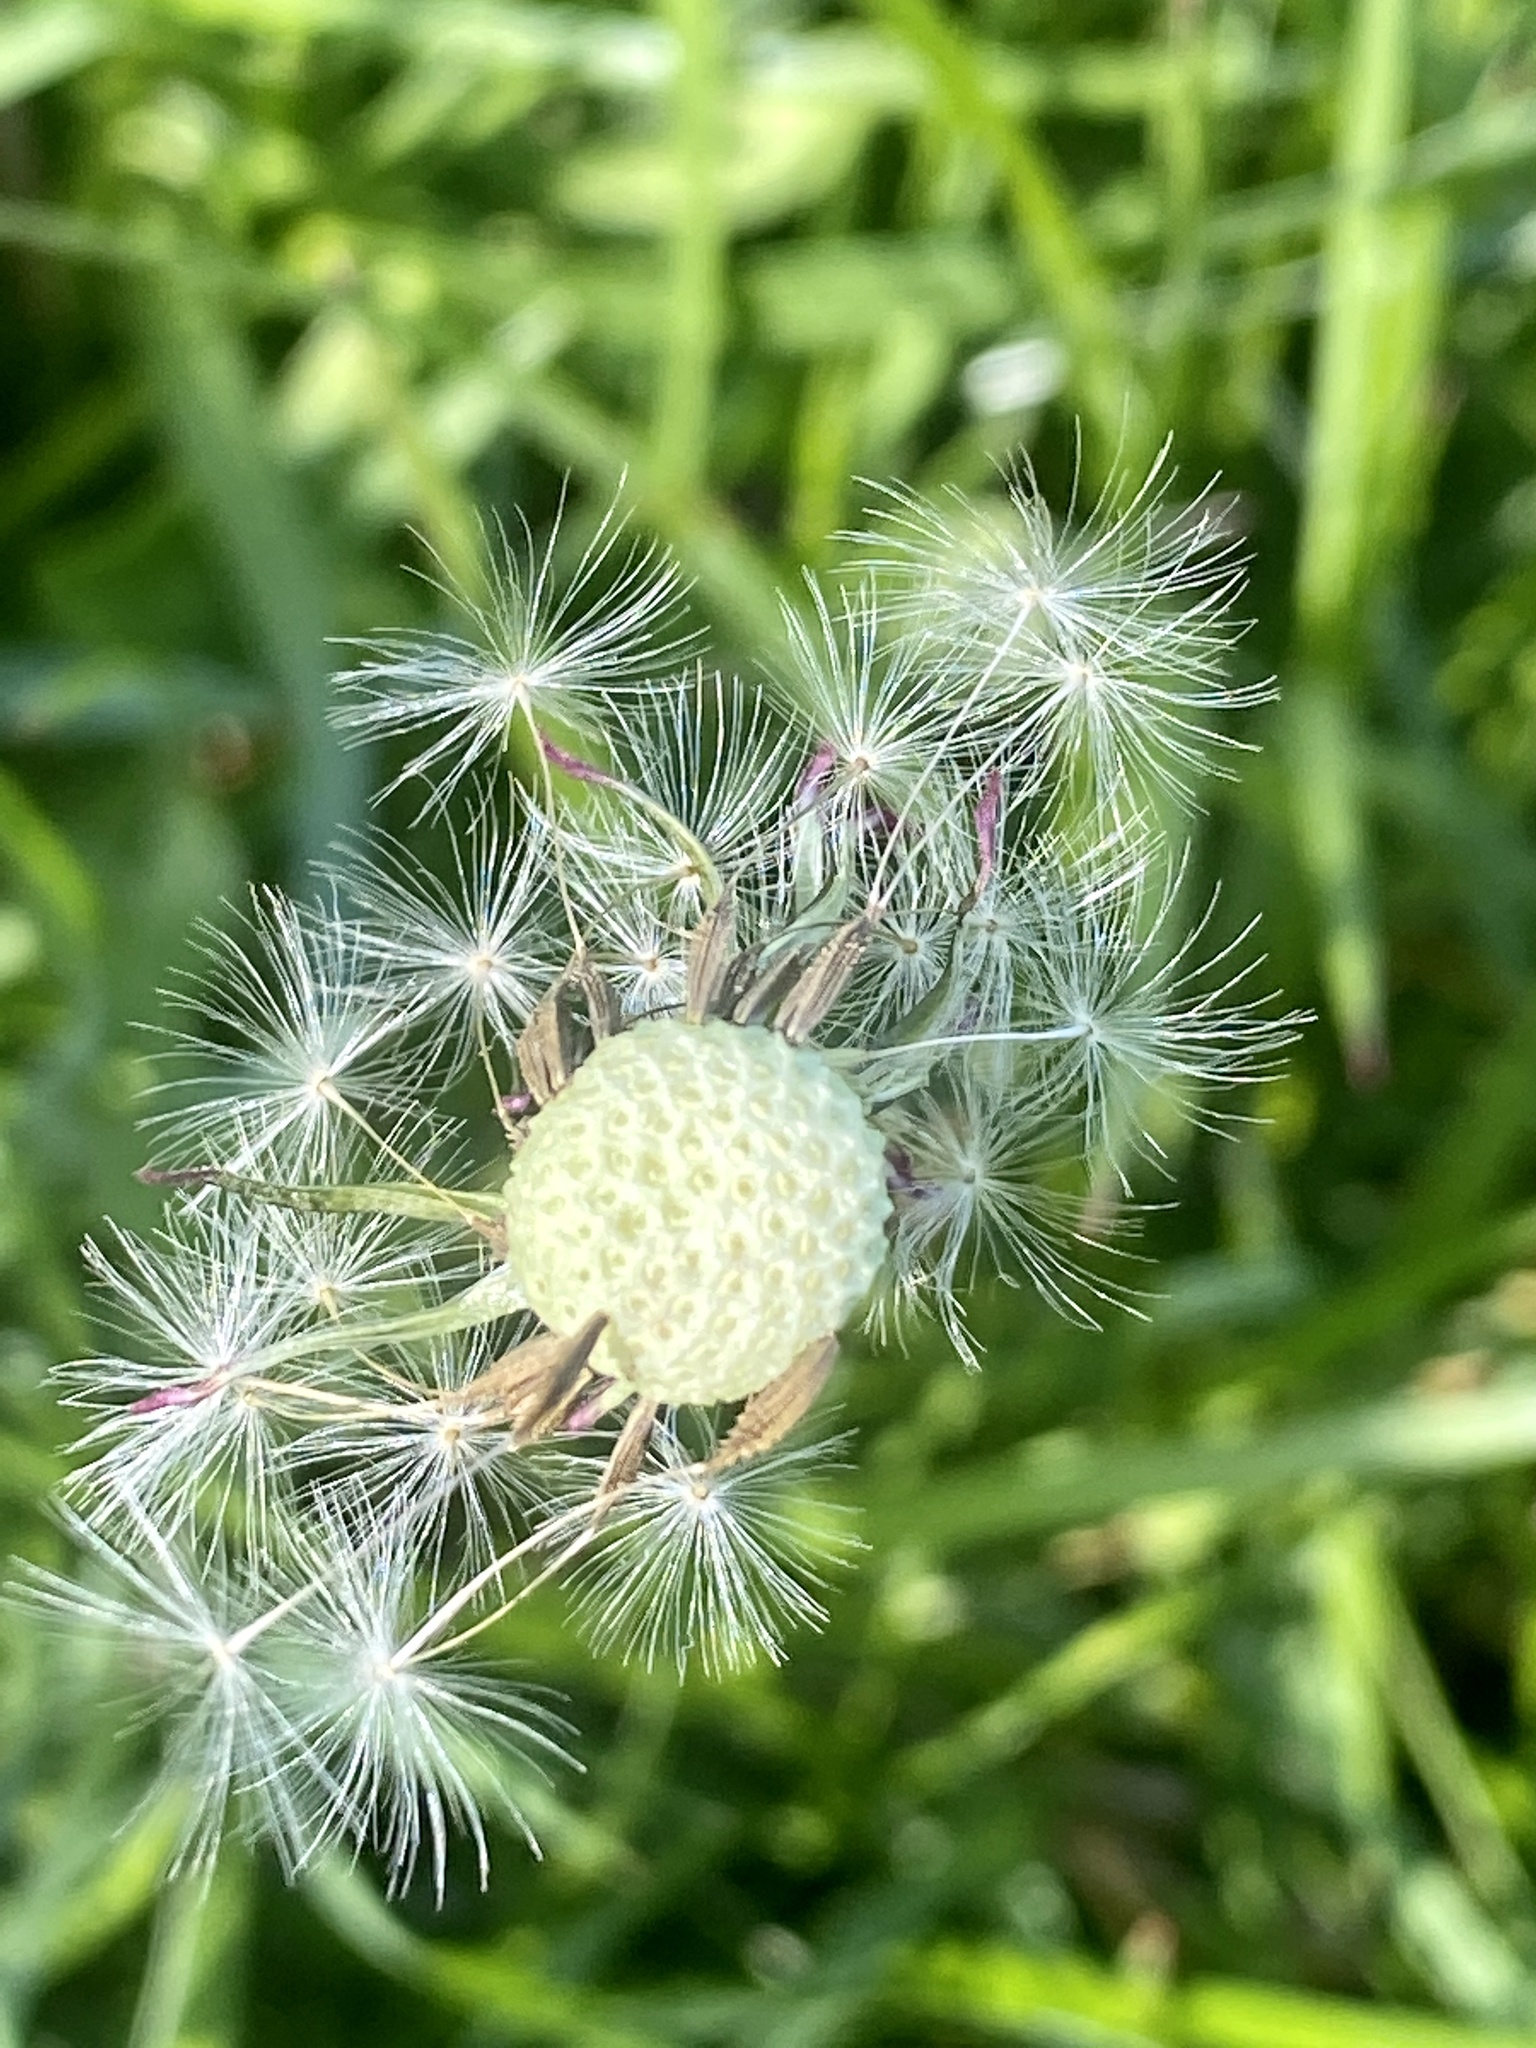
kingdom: Plantae
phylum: Tracheophyta
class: Magnoliopsida
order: Asterales
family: Asteraceae
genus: Taraxacum
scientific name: Taraxacum officinale
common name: Common dandelion
